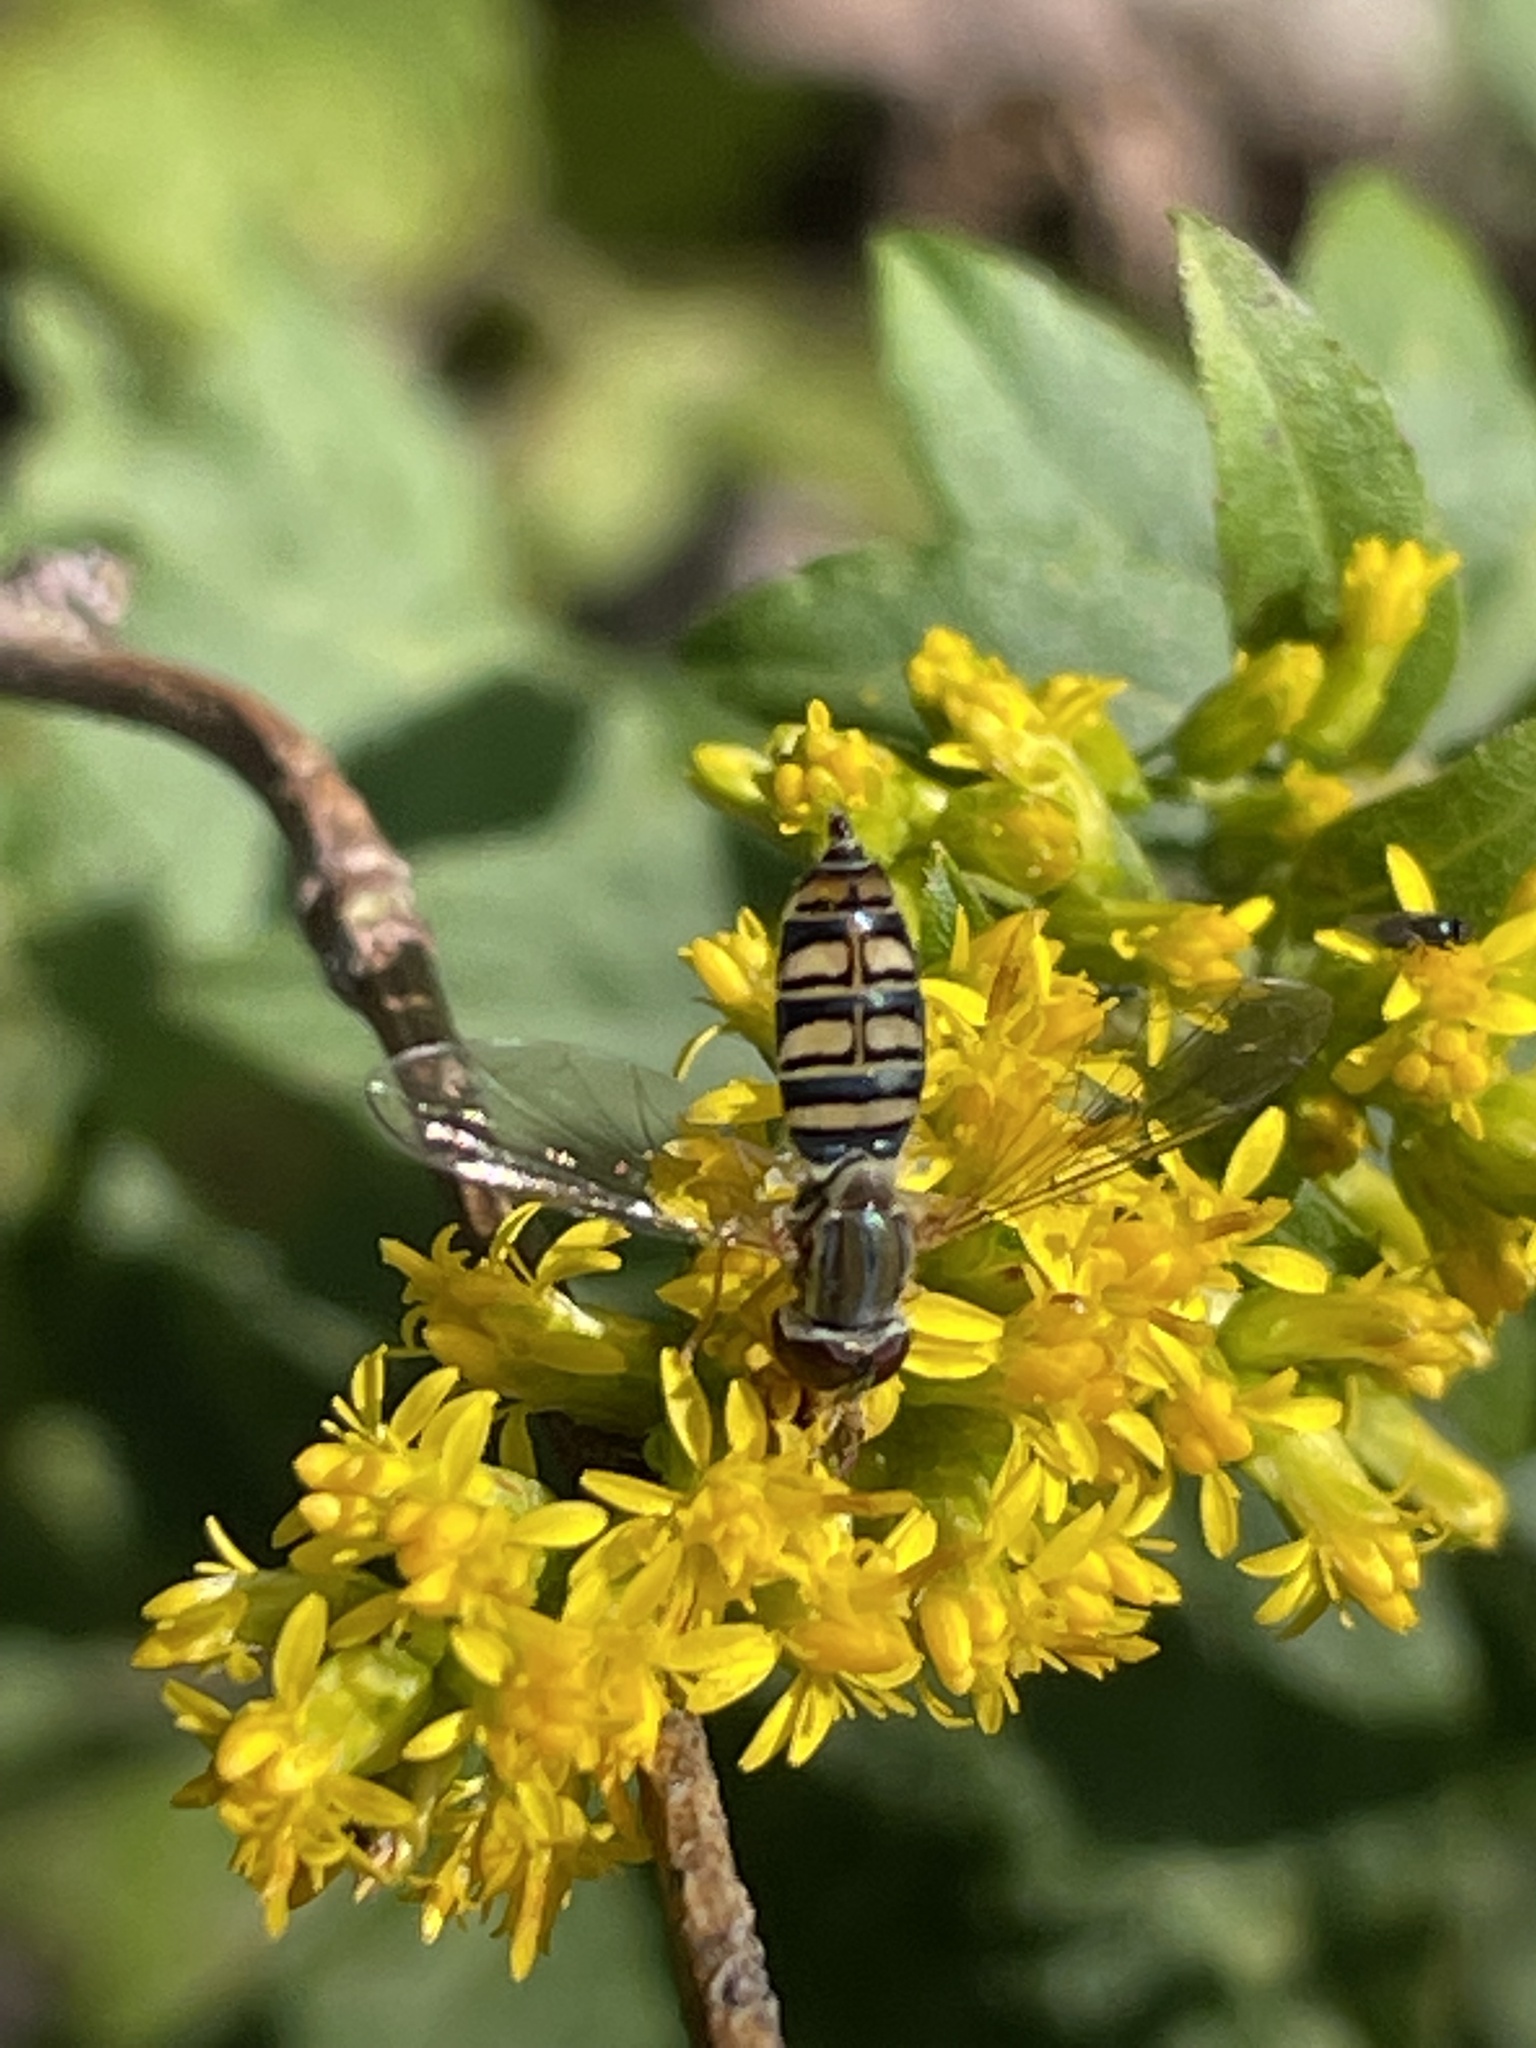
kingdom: Animalia
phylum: Arthropoda
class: Insecta
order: Diptera
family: Syrphidae
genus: Toxomerus
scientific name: Toxomerus politus
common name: Maize calligrapher
